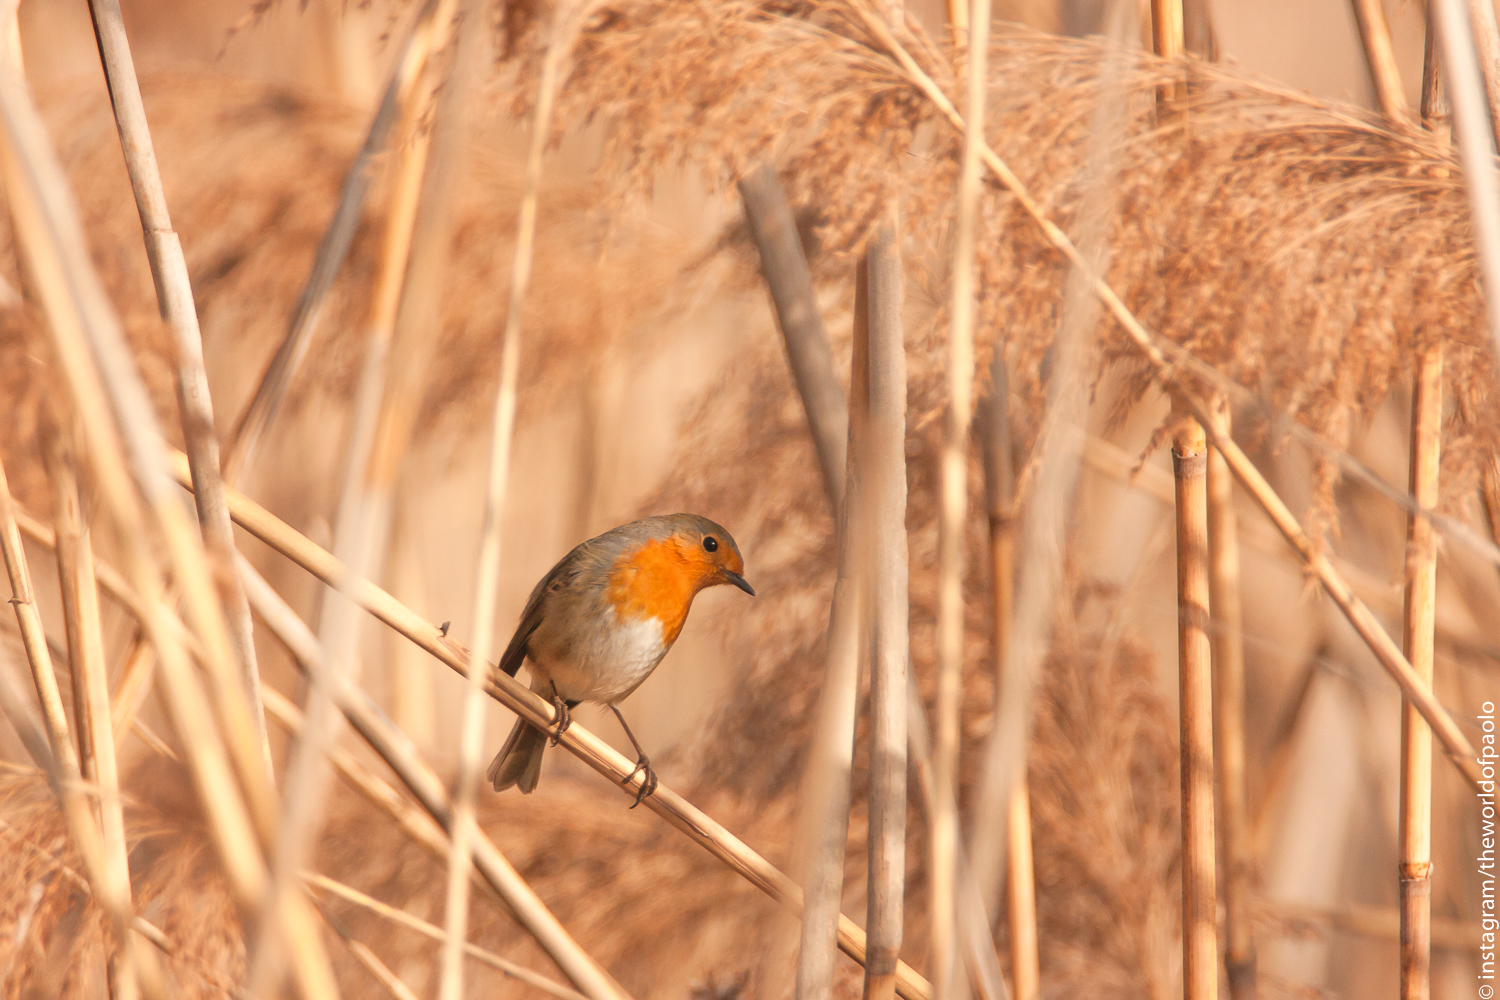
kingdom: Animalia
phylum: Chordata
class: Aves
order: Passeriformes
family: Muscicapidae
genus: Erithacus
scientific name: Erithacus rubecula
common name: European robin
